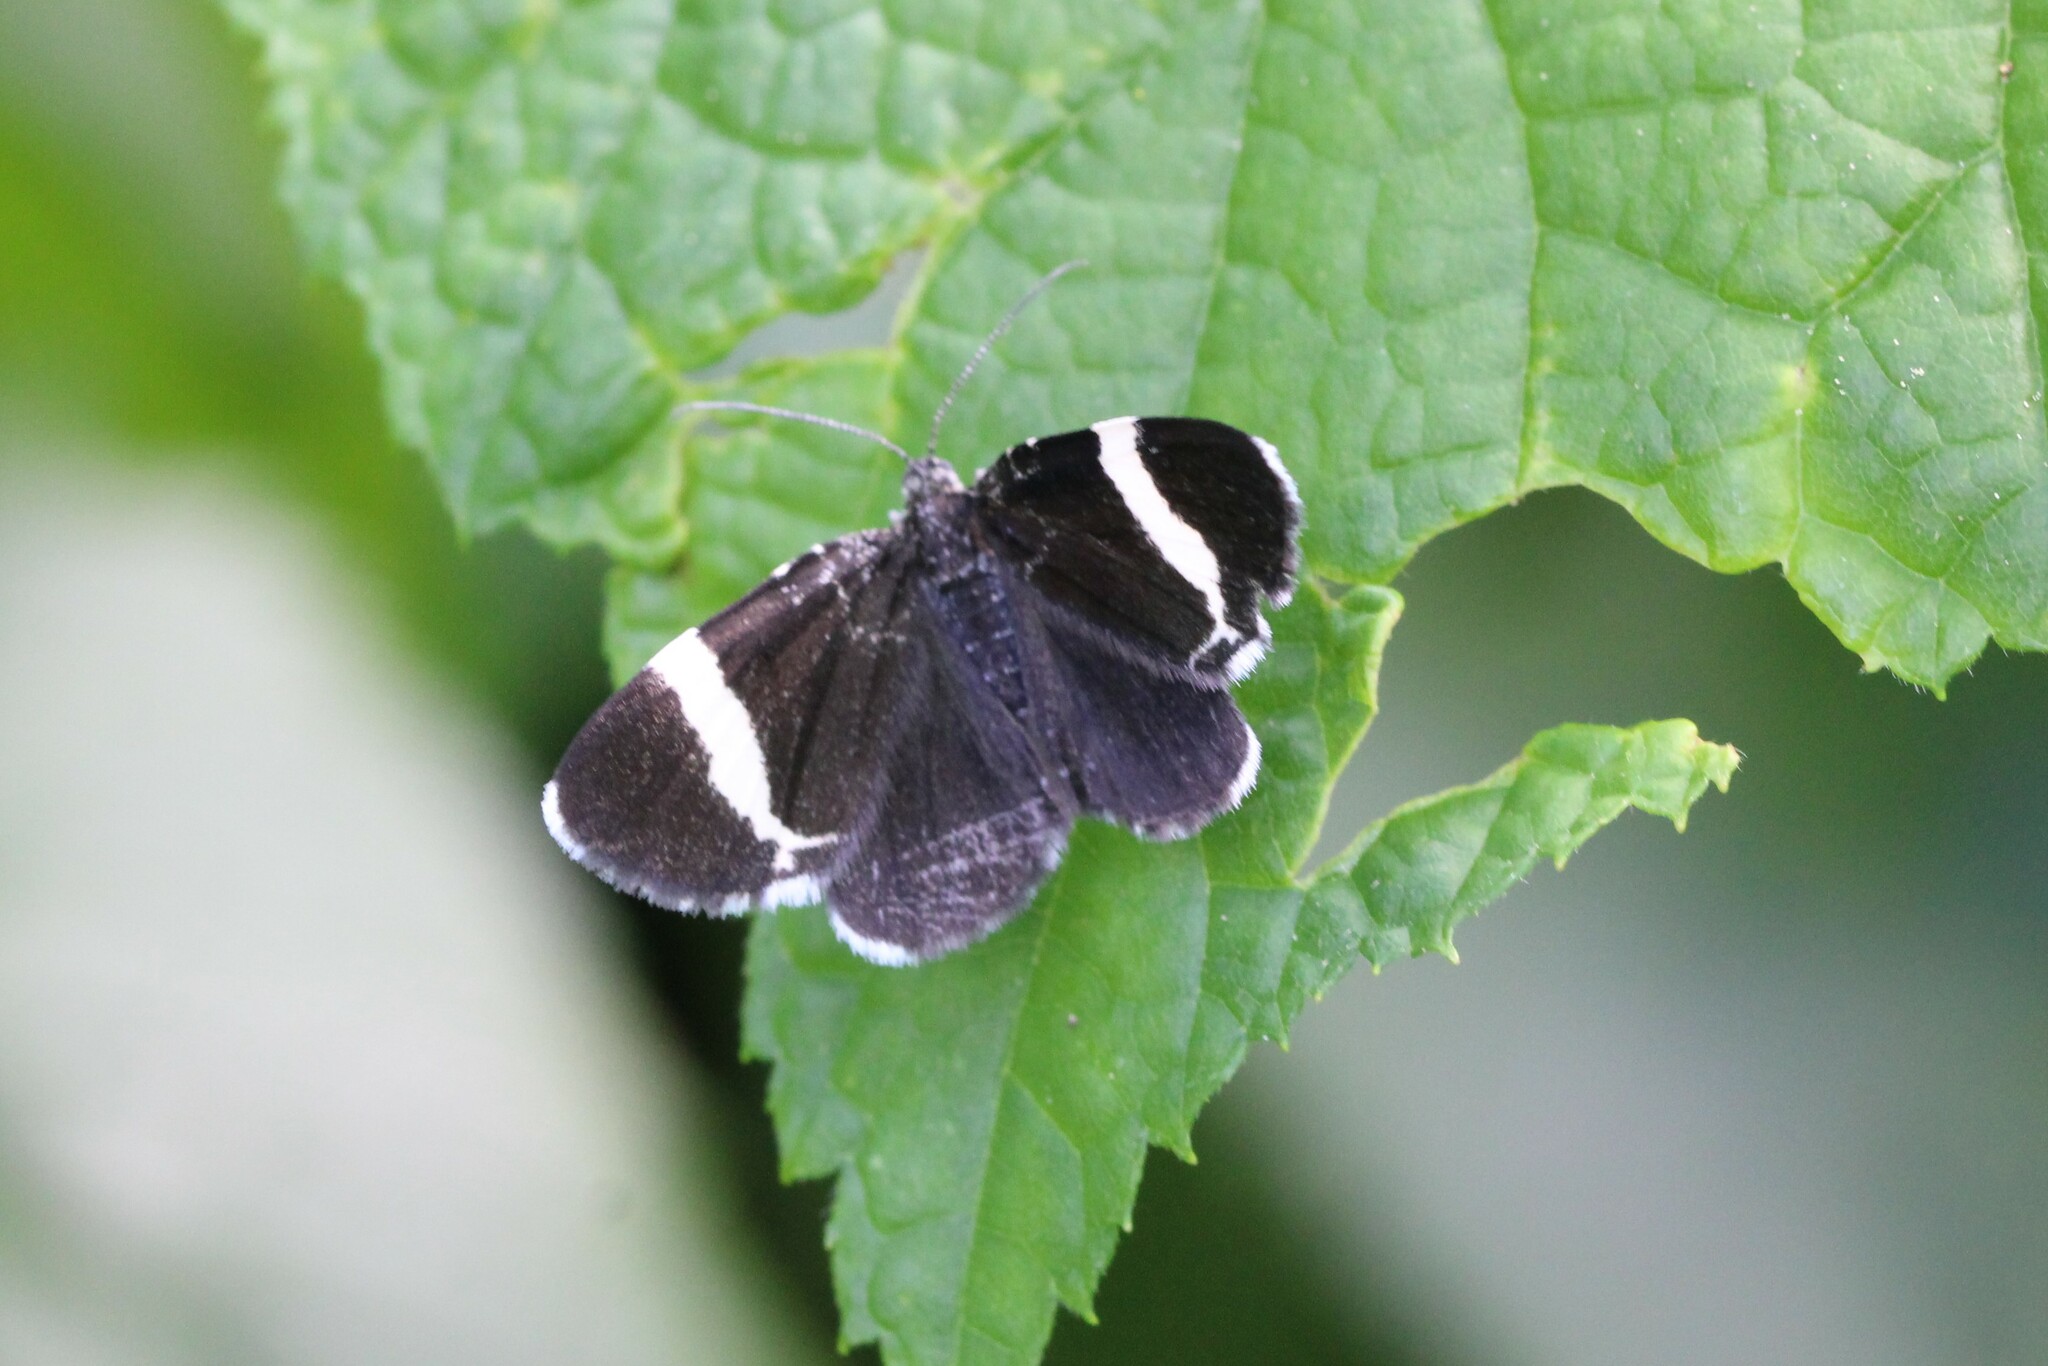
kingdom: Animalia
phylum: Arthropoda
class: Insecta
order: Lepidoptera
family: Geometridae
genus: Trichodezia
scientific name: Trichodezia albovittata
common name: White striped black
